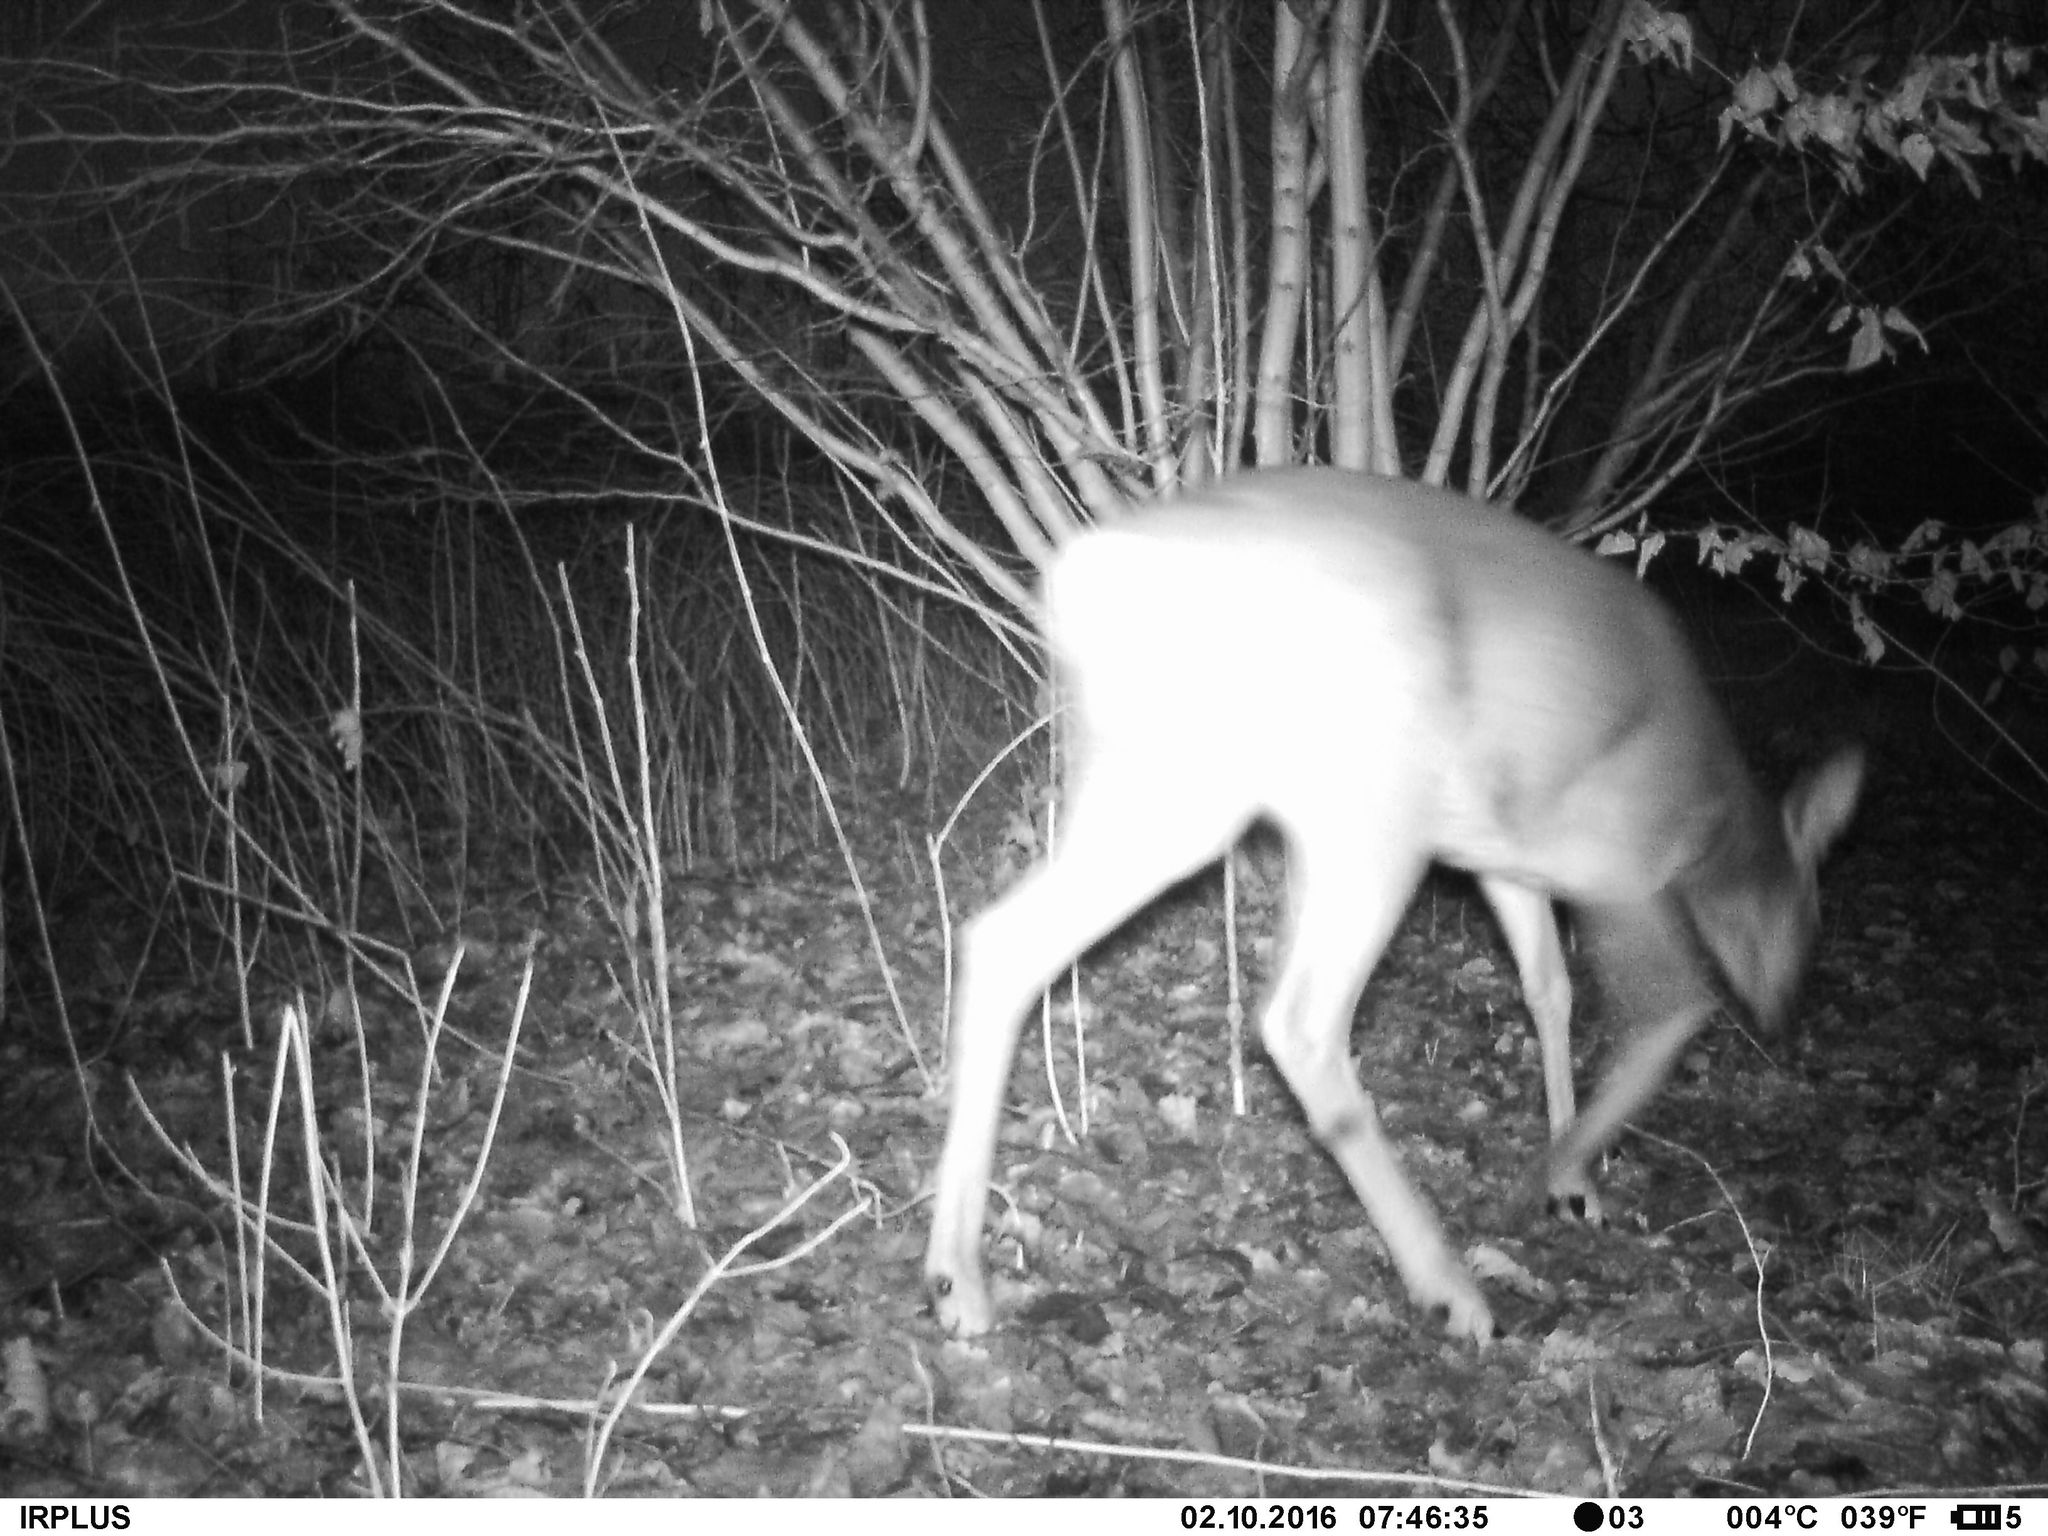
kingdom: Animalia
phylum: Chordata
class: Mammalia
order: Artiodactyla
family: Cervidae
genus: Capreolus
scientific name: Capreolus capreolus
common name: Western roe deer
